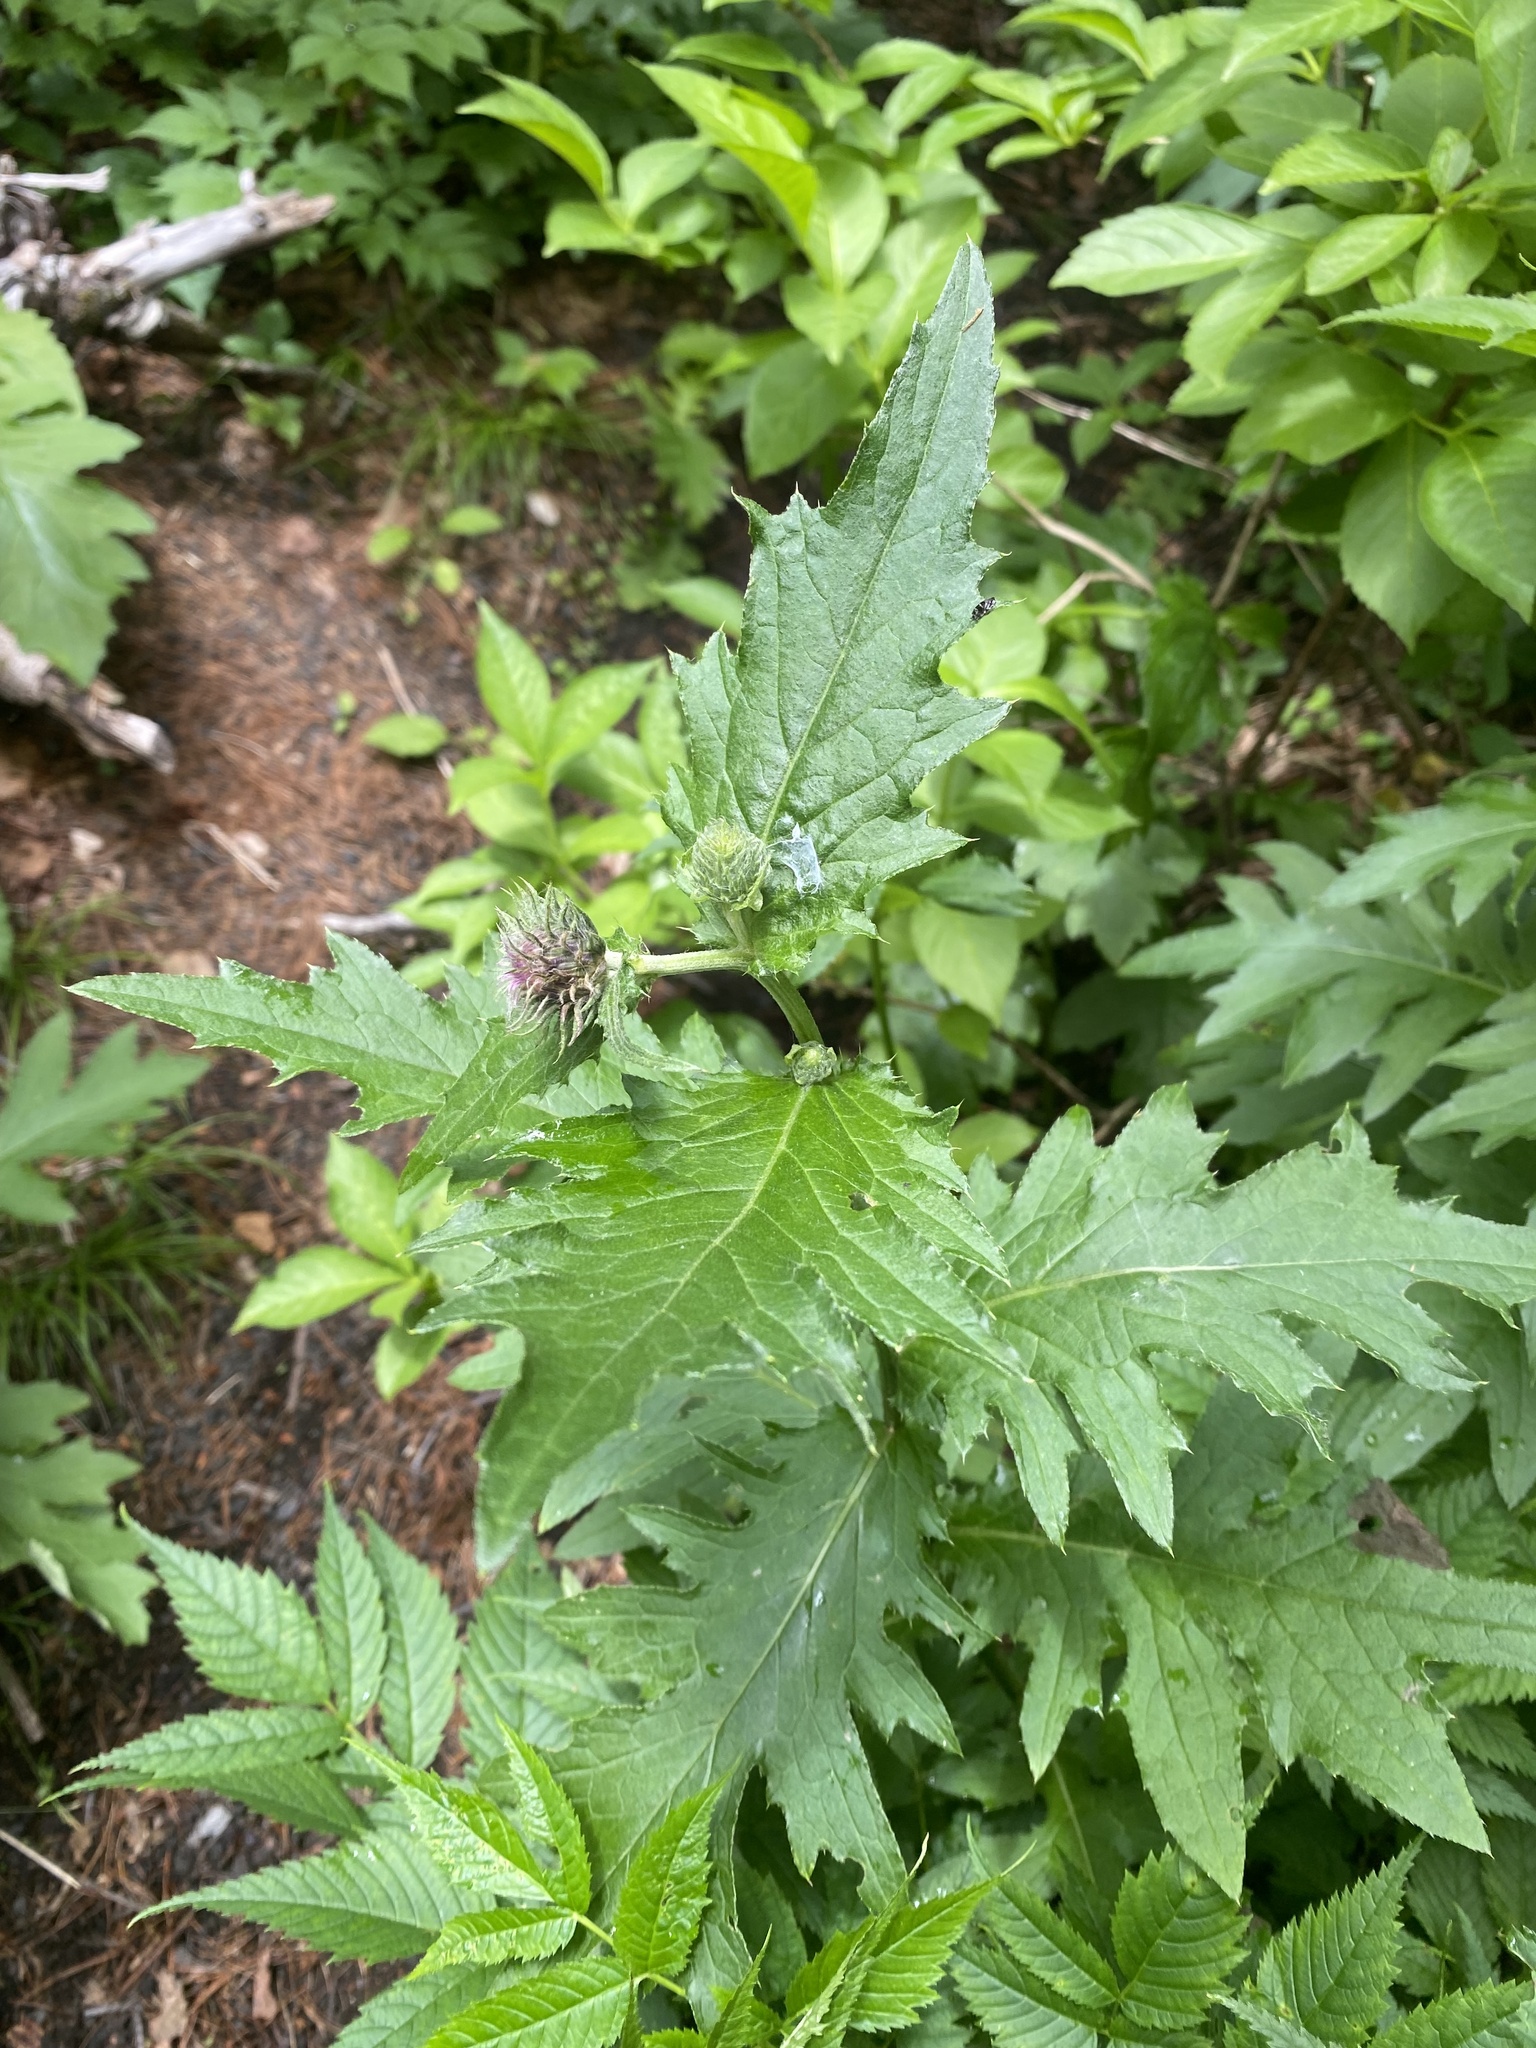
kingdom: Plantae
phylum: Tracheophyta
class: Magnoliopsida
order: Asterales
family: Asteraceae
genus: Cirsium
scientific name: Cirsium kamtschaticum
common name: Kamchatka thistle
